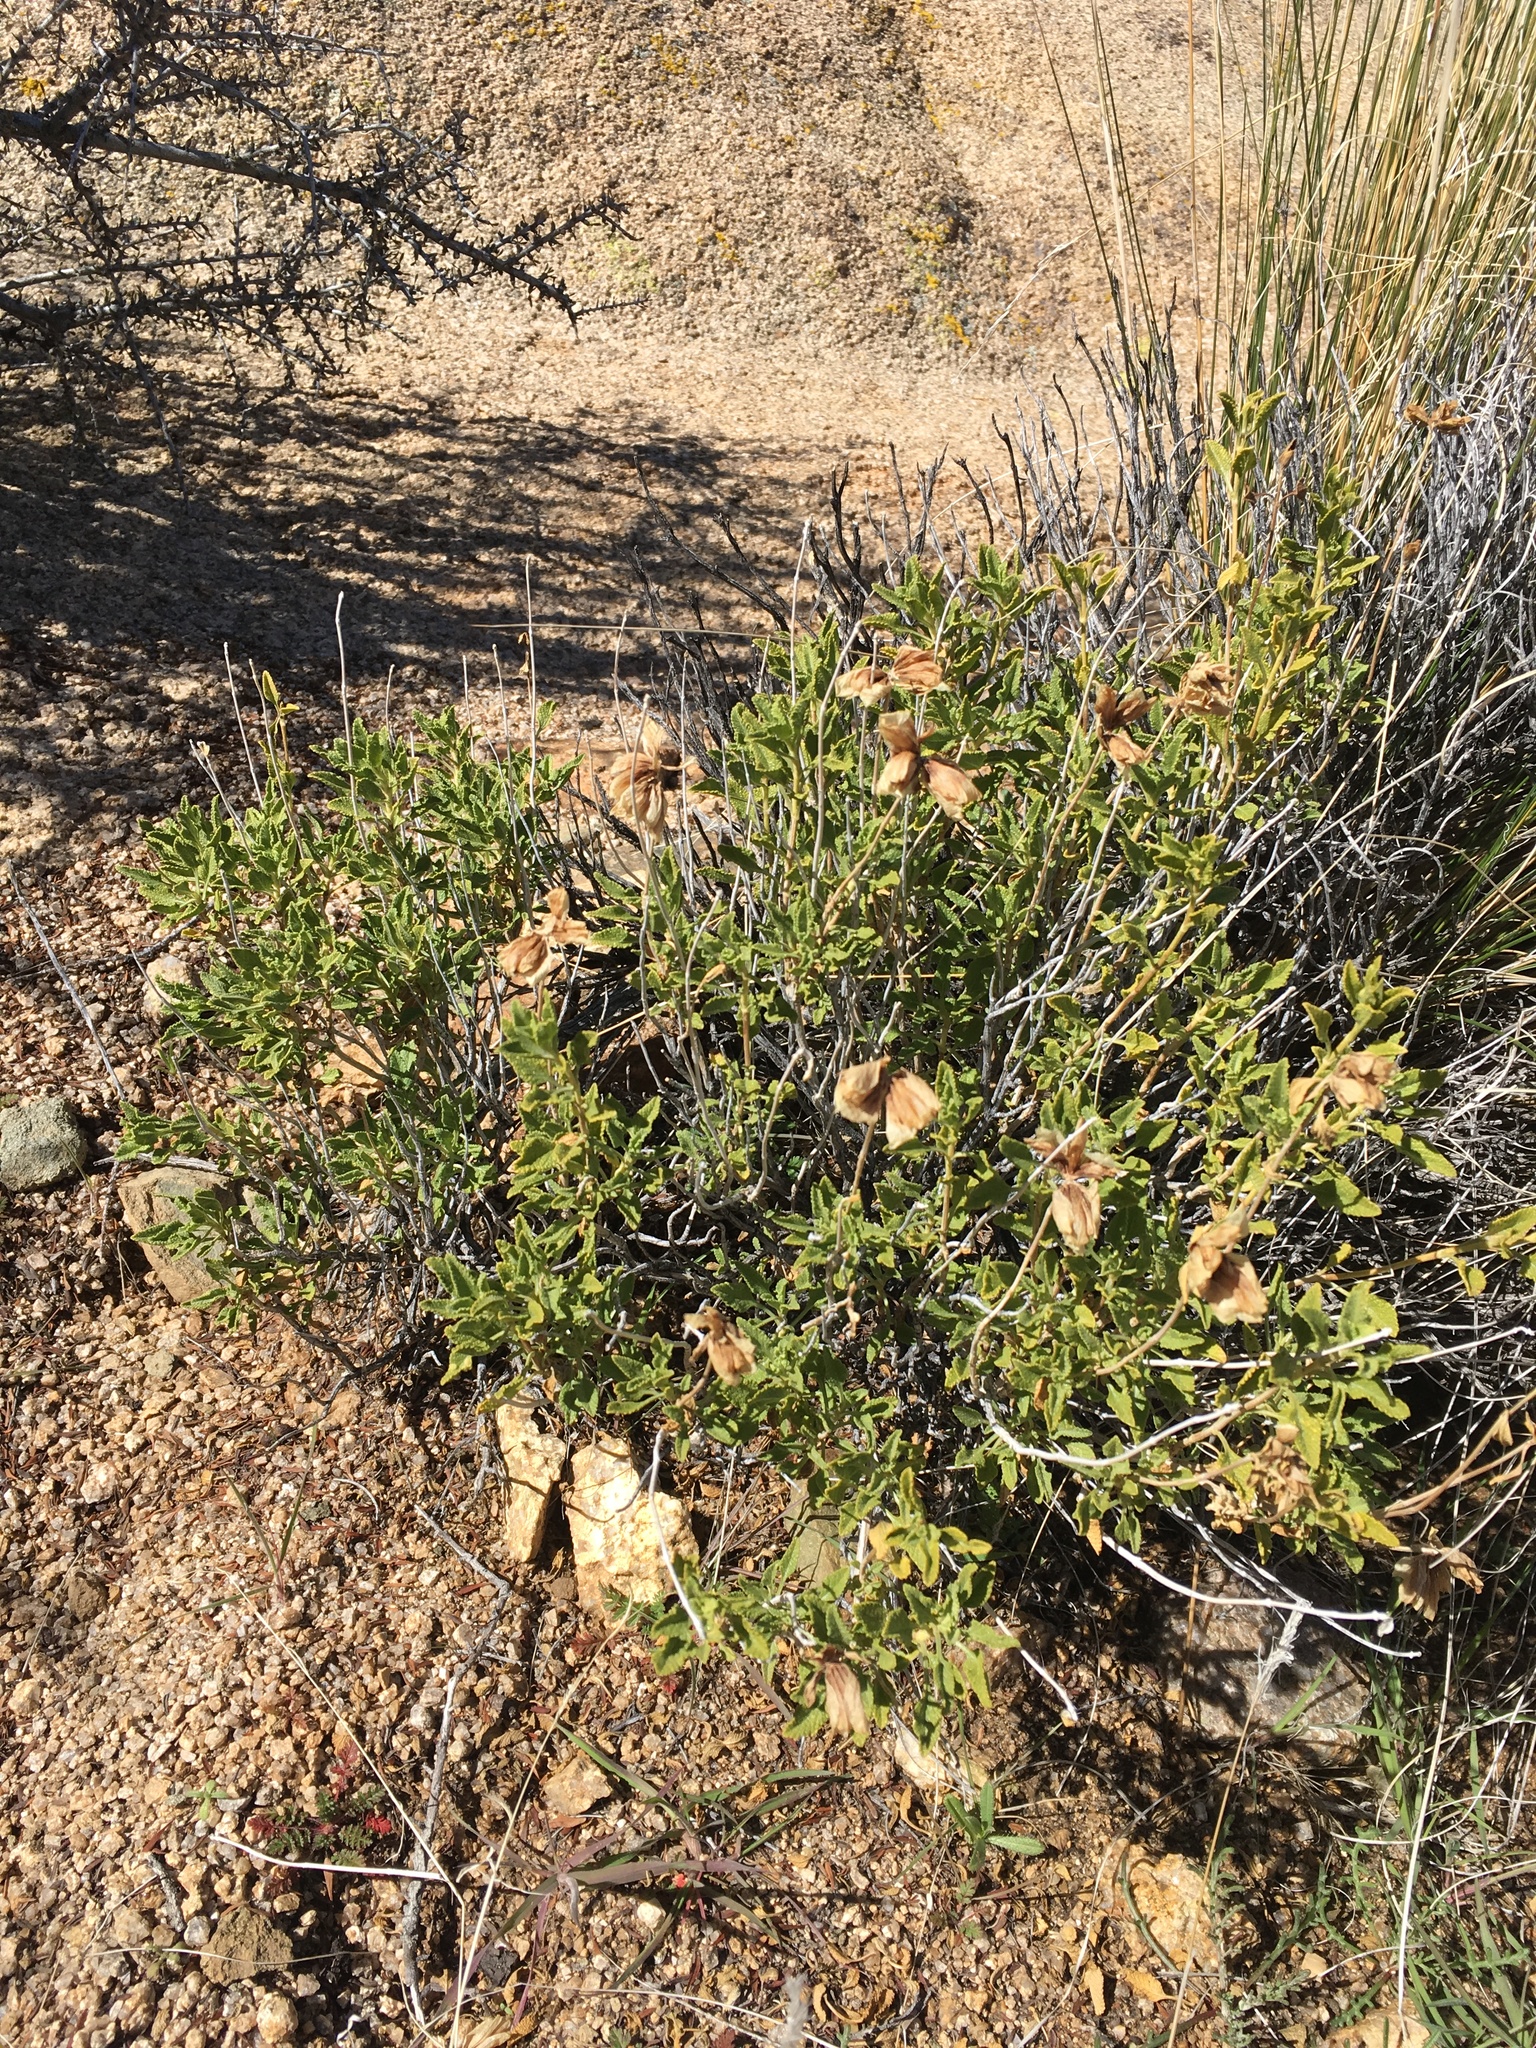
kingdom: Plantae
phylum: Tracheophyta
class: Magnoliopsida
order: Lamiales
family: Lamiaceae
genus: Salvia
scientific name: Salvia mohavensis
